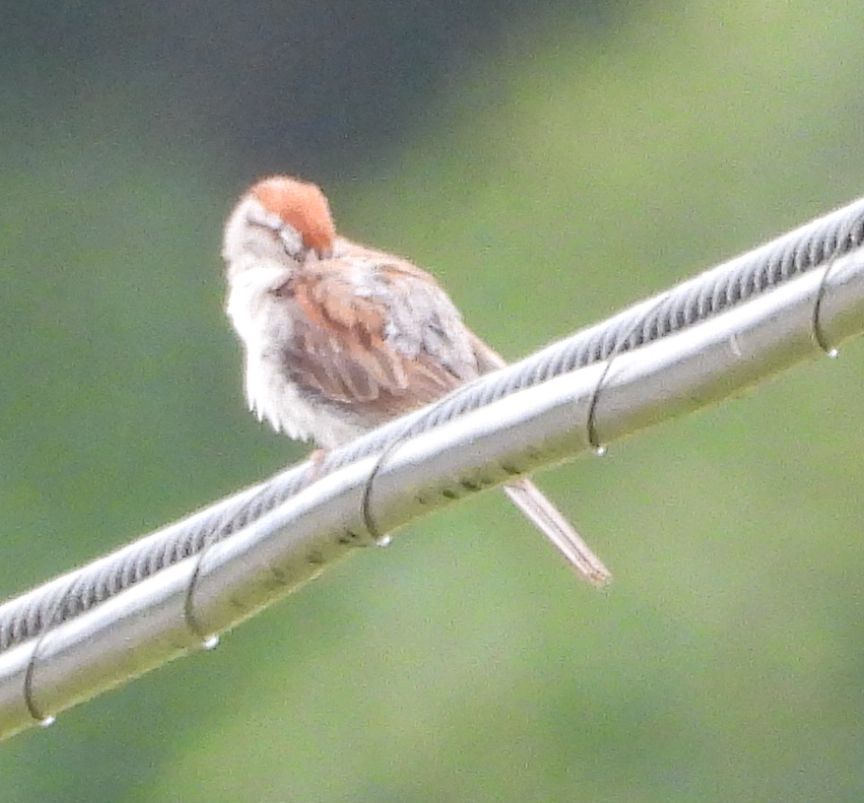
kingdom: Animalia
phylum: Chordata
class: Aves
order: Passeriformes
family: Passerellidae
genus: Spizella
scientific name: Spizella passerina
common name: Chipping sparrow
